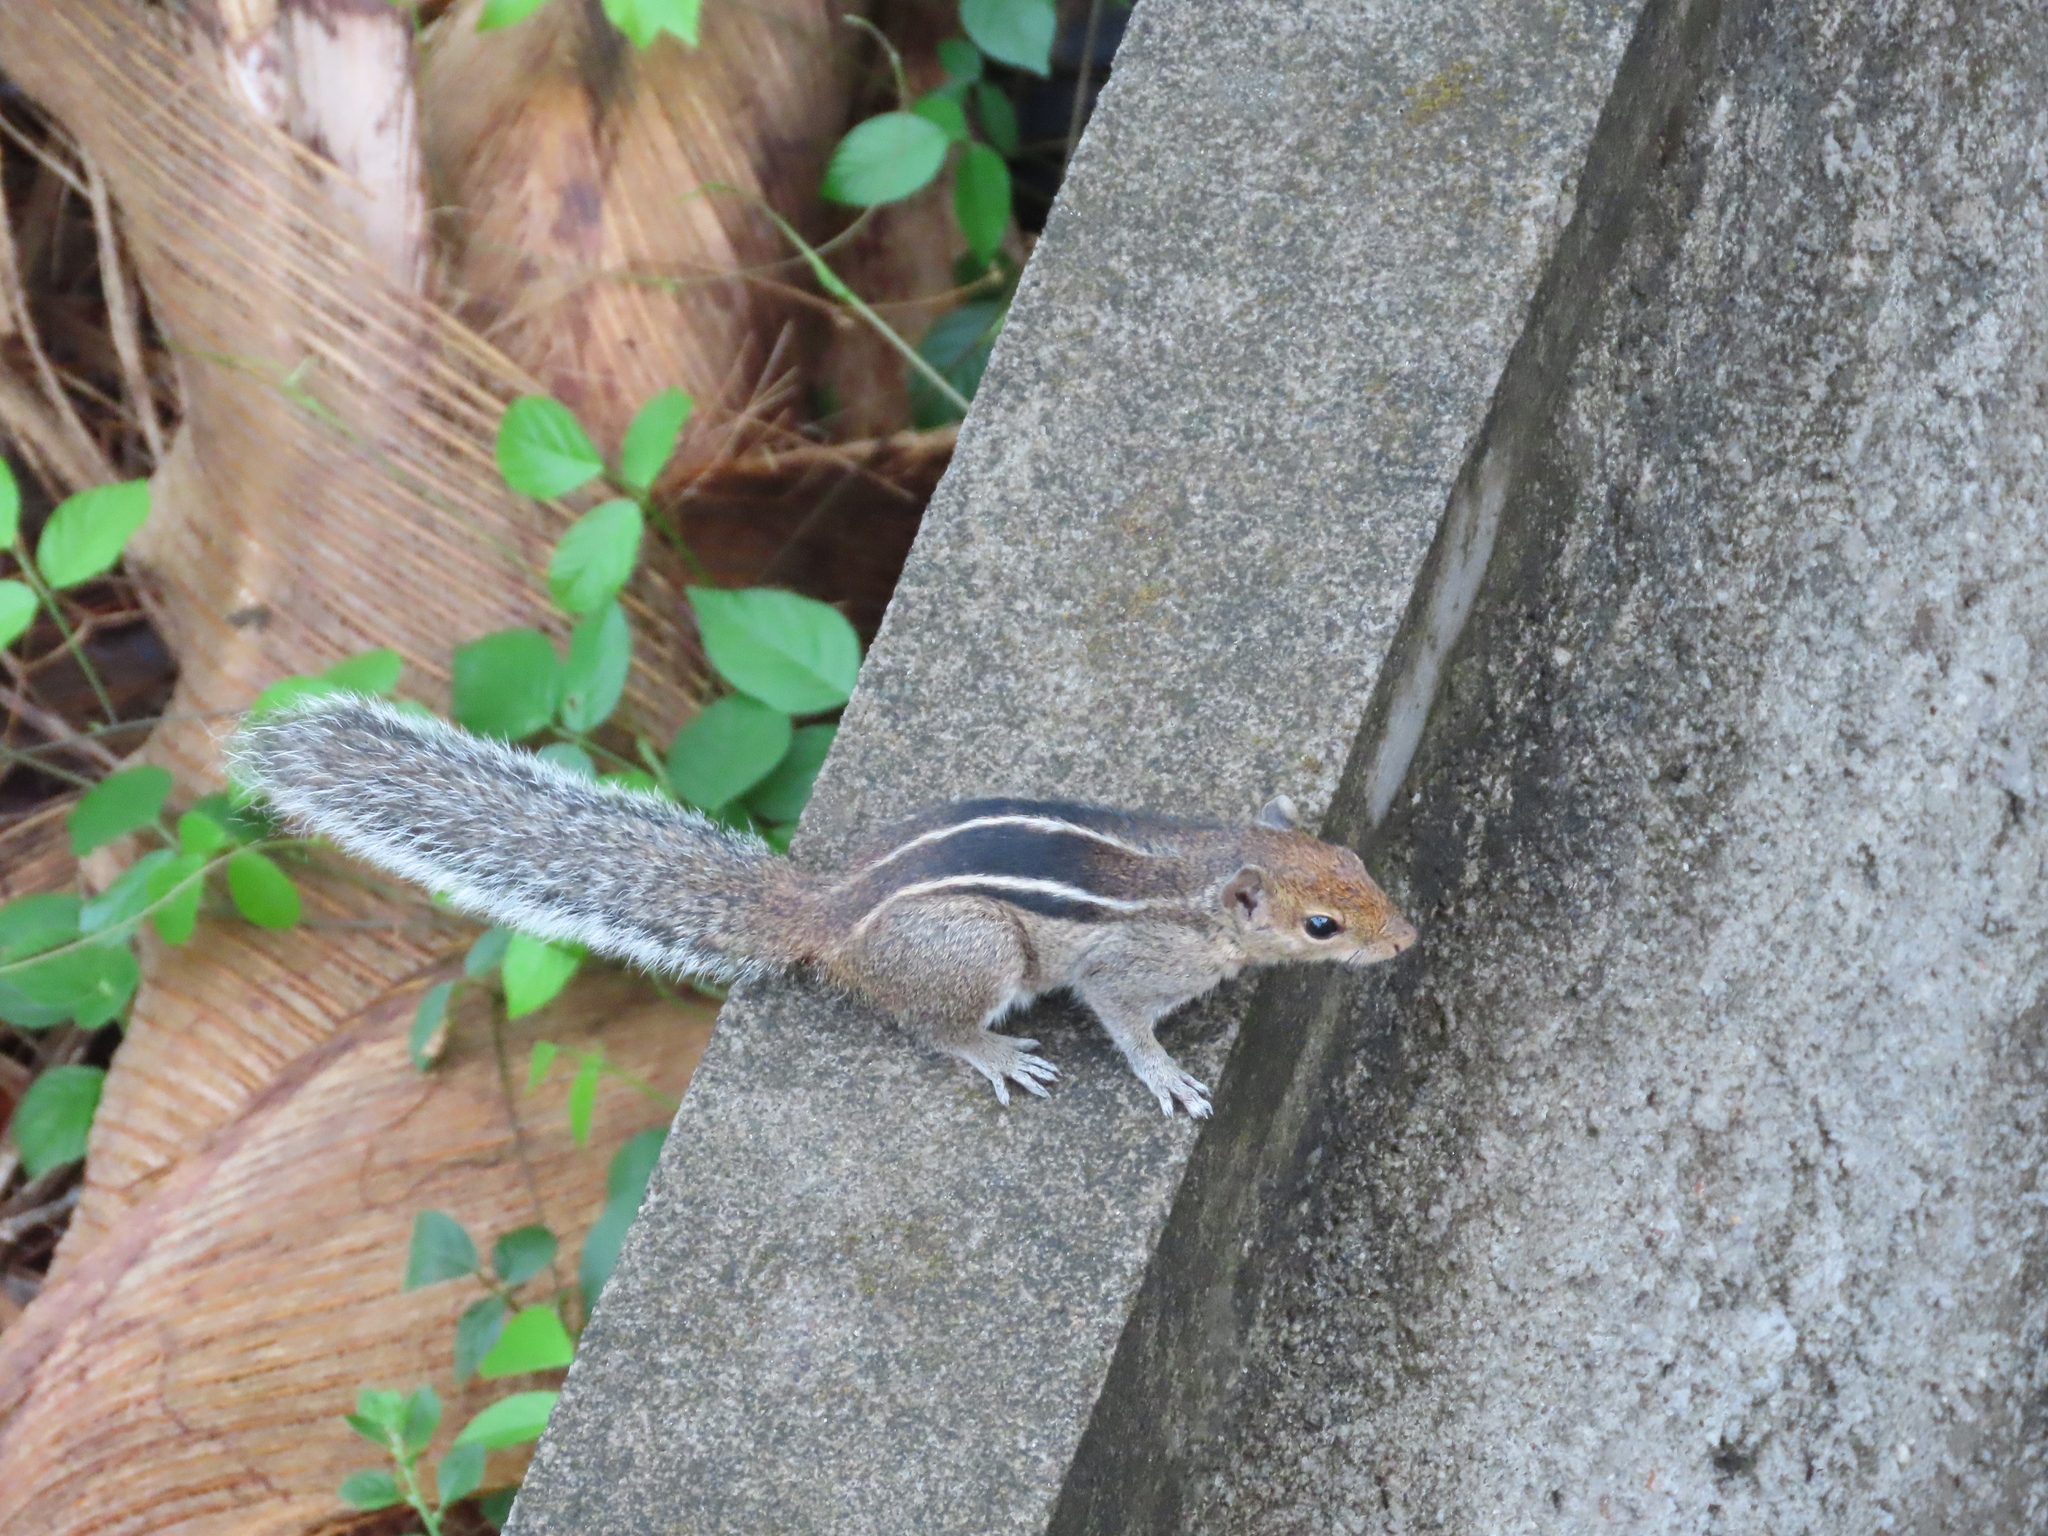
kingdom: Animalia
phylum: Chordata
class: Mammalia
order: Rodentia
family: Sciuridae
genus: Funambulus
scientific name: Funambulus tristriatus
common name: Jungle palm squirrel
